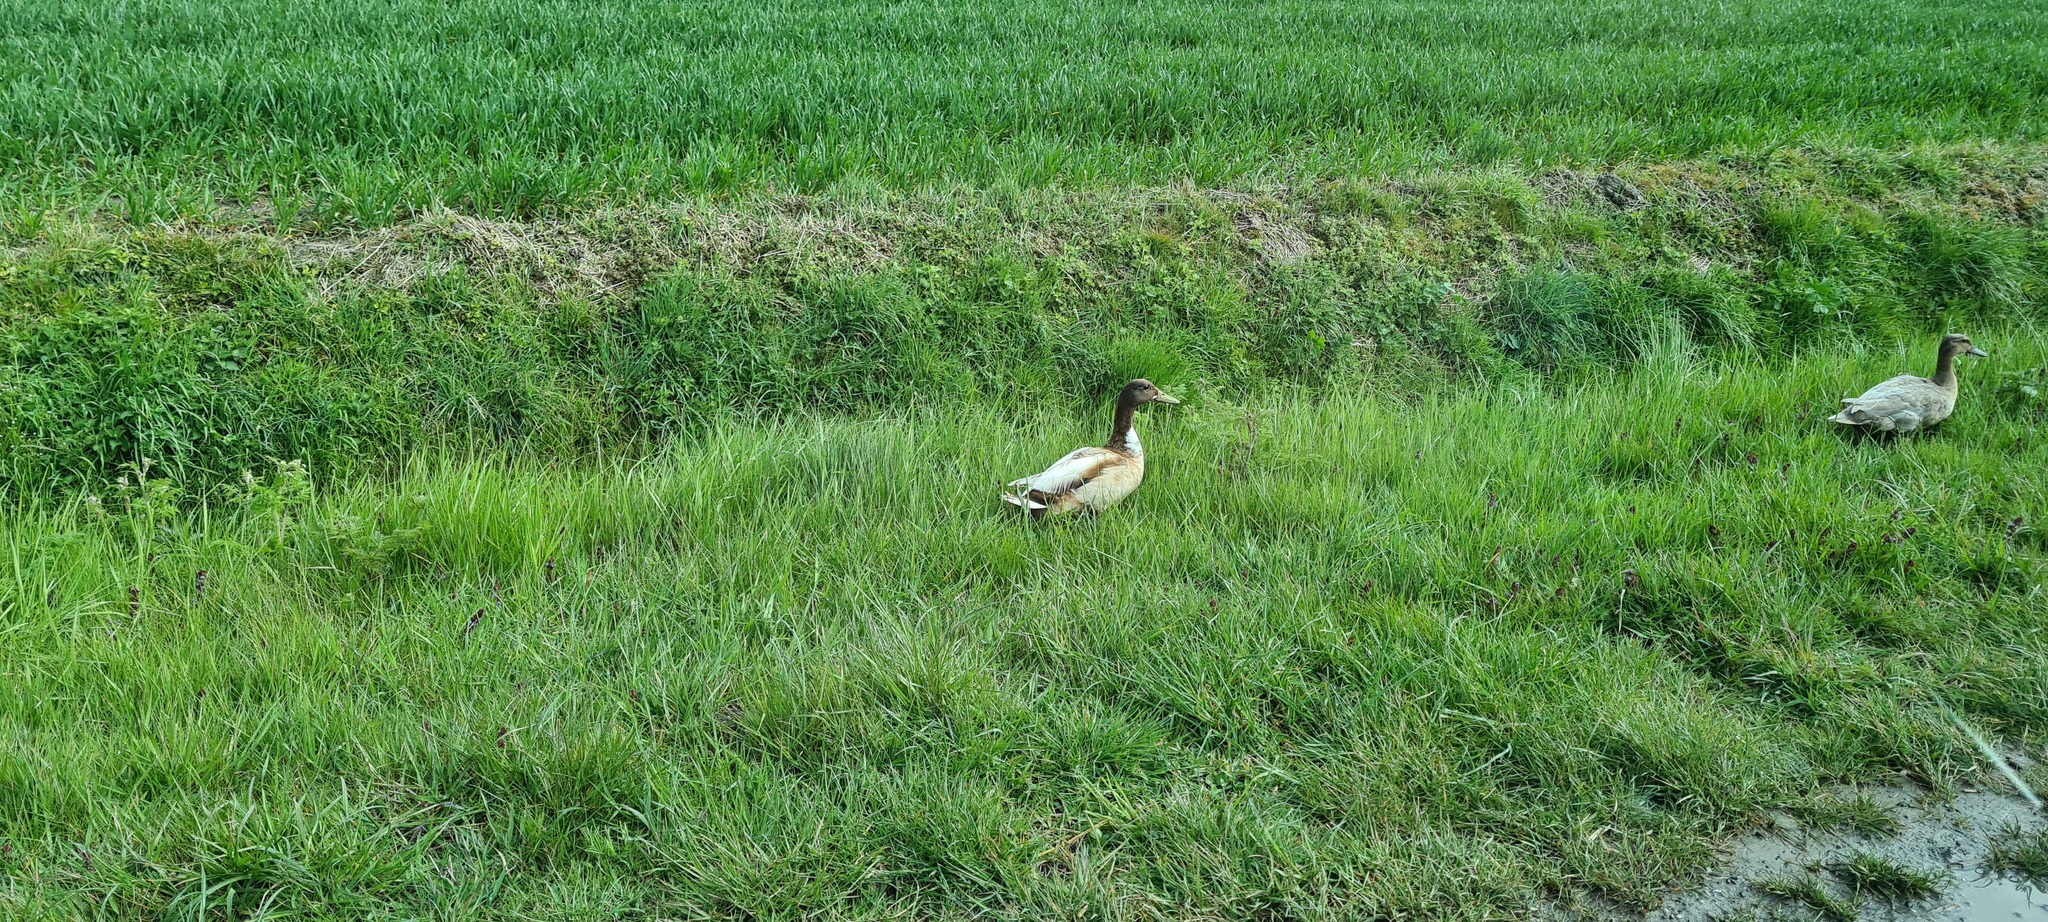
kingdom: Animalia
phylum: Chordata
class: Aves
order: Anseriformes
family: Anatidae
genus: Anas
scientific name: Anas platyrhynchos
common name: Mallard
